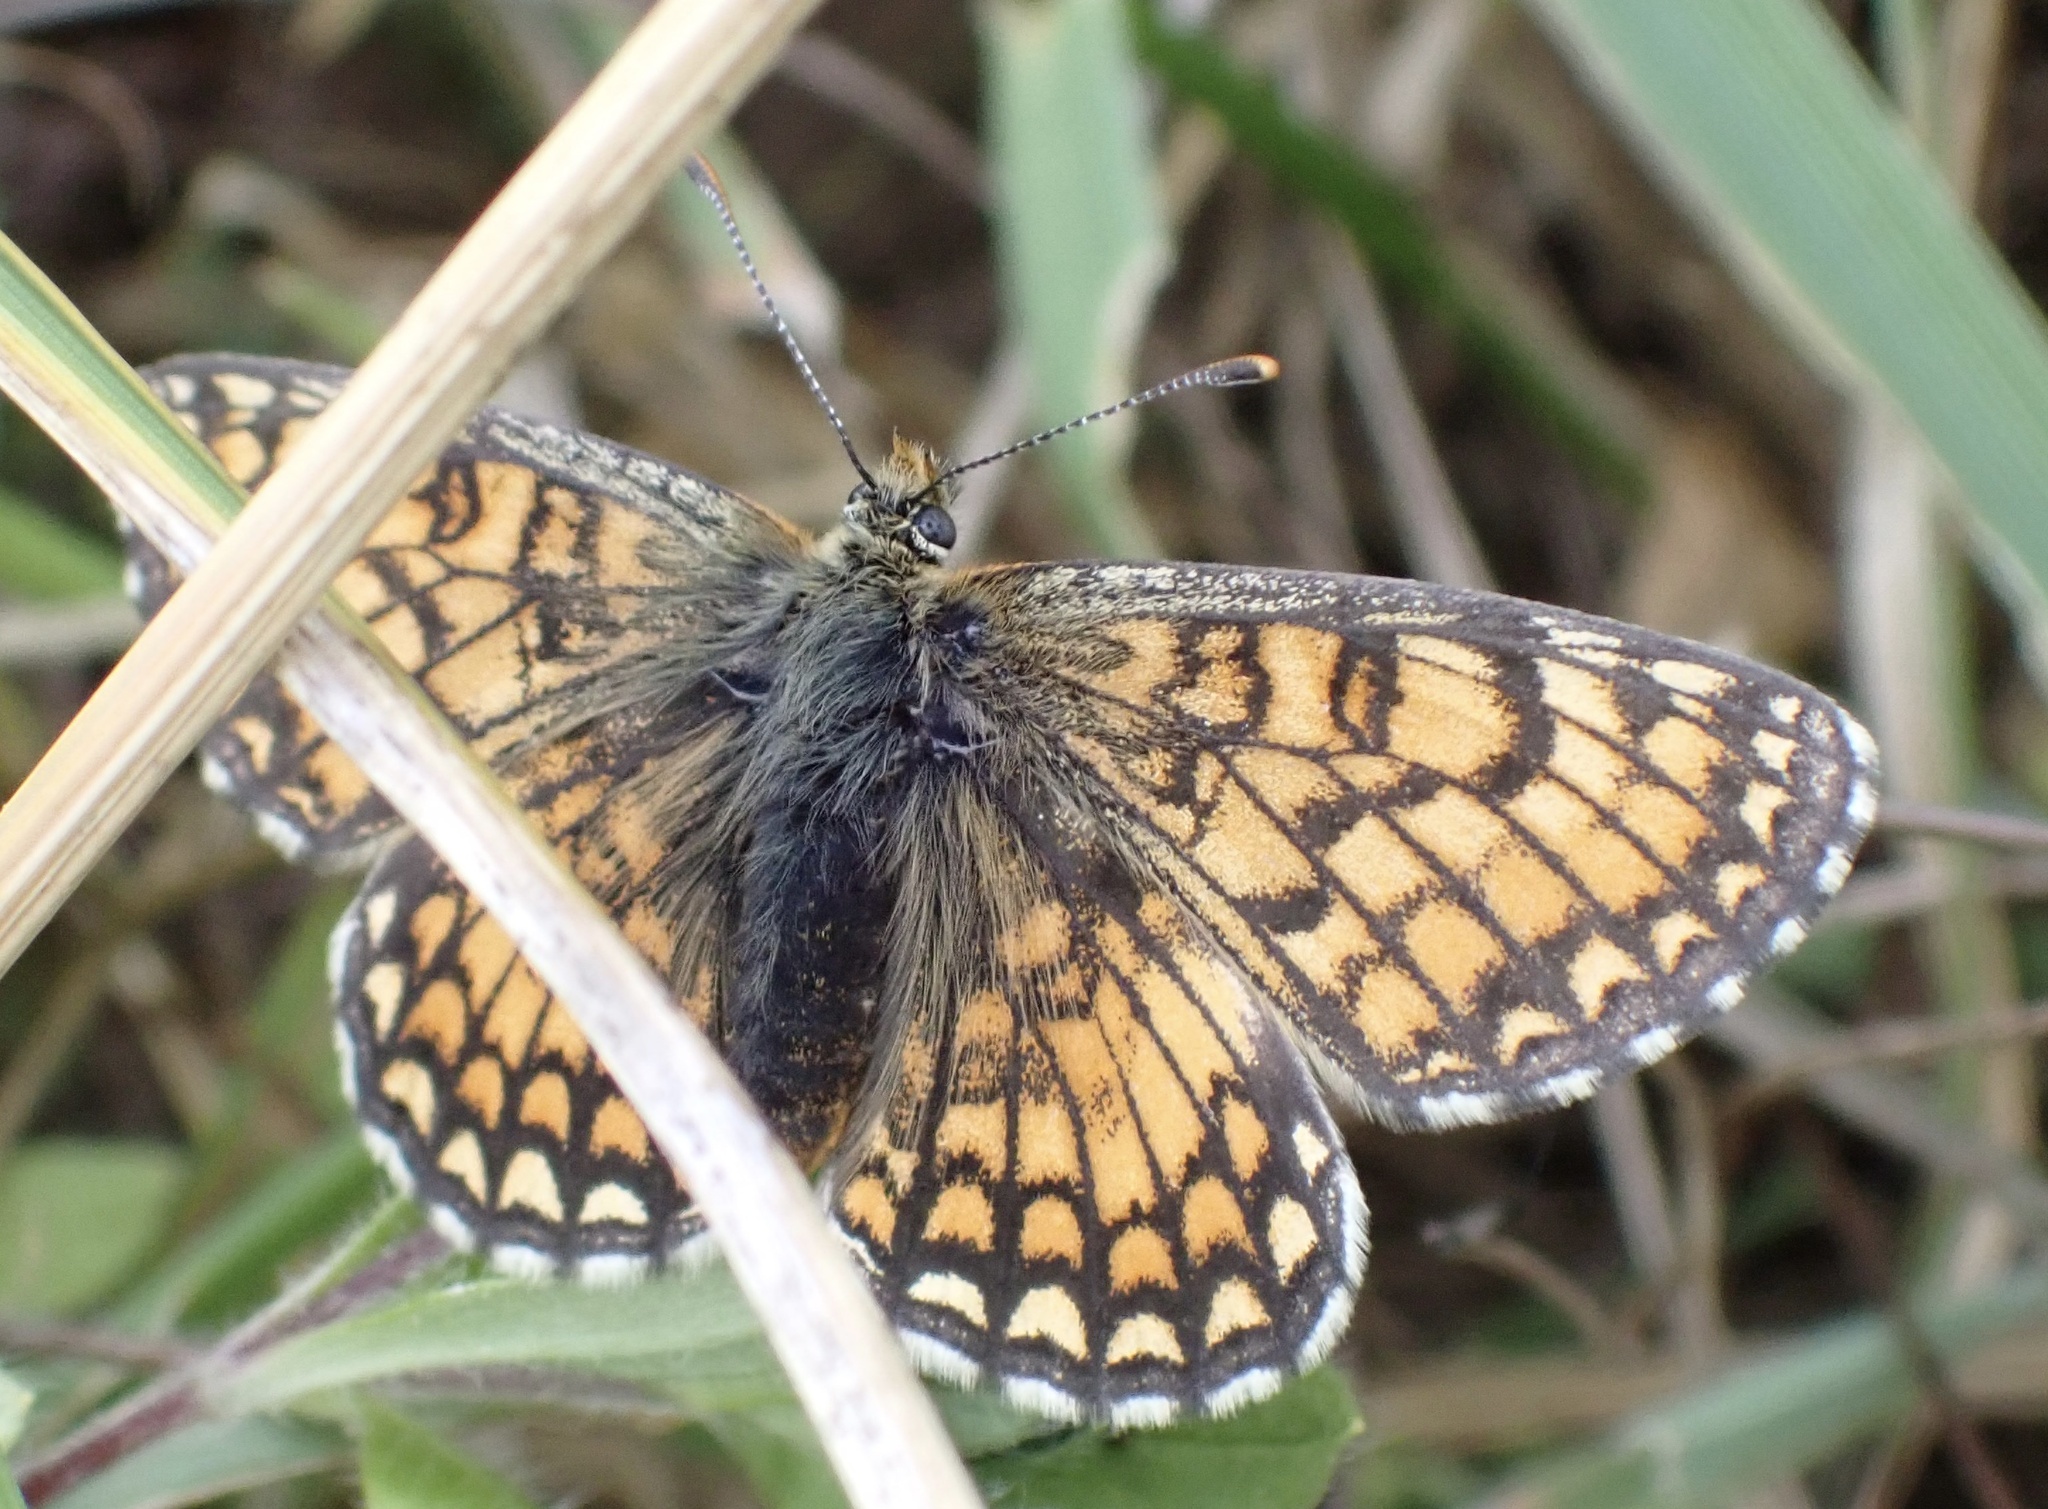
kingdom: Animalia
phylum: Arthropoda
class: Insecta
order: Lepidoptera
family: Nymphalidae
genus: Mellicta
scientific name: Mellicta parthenoides
